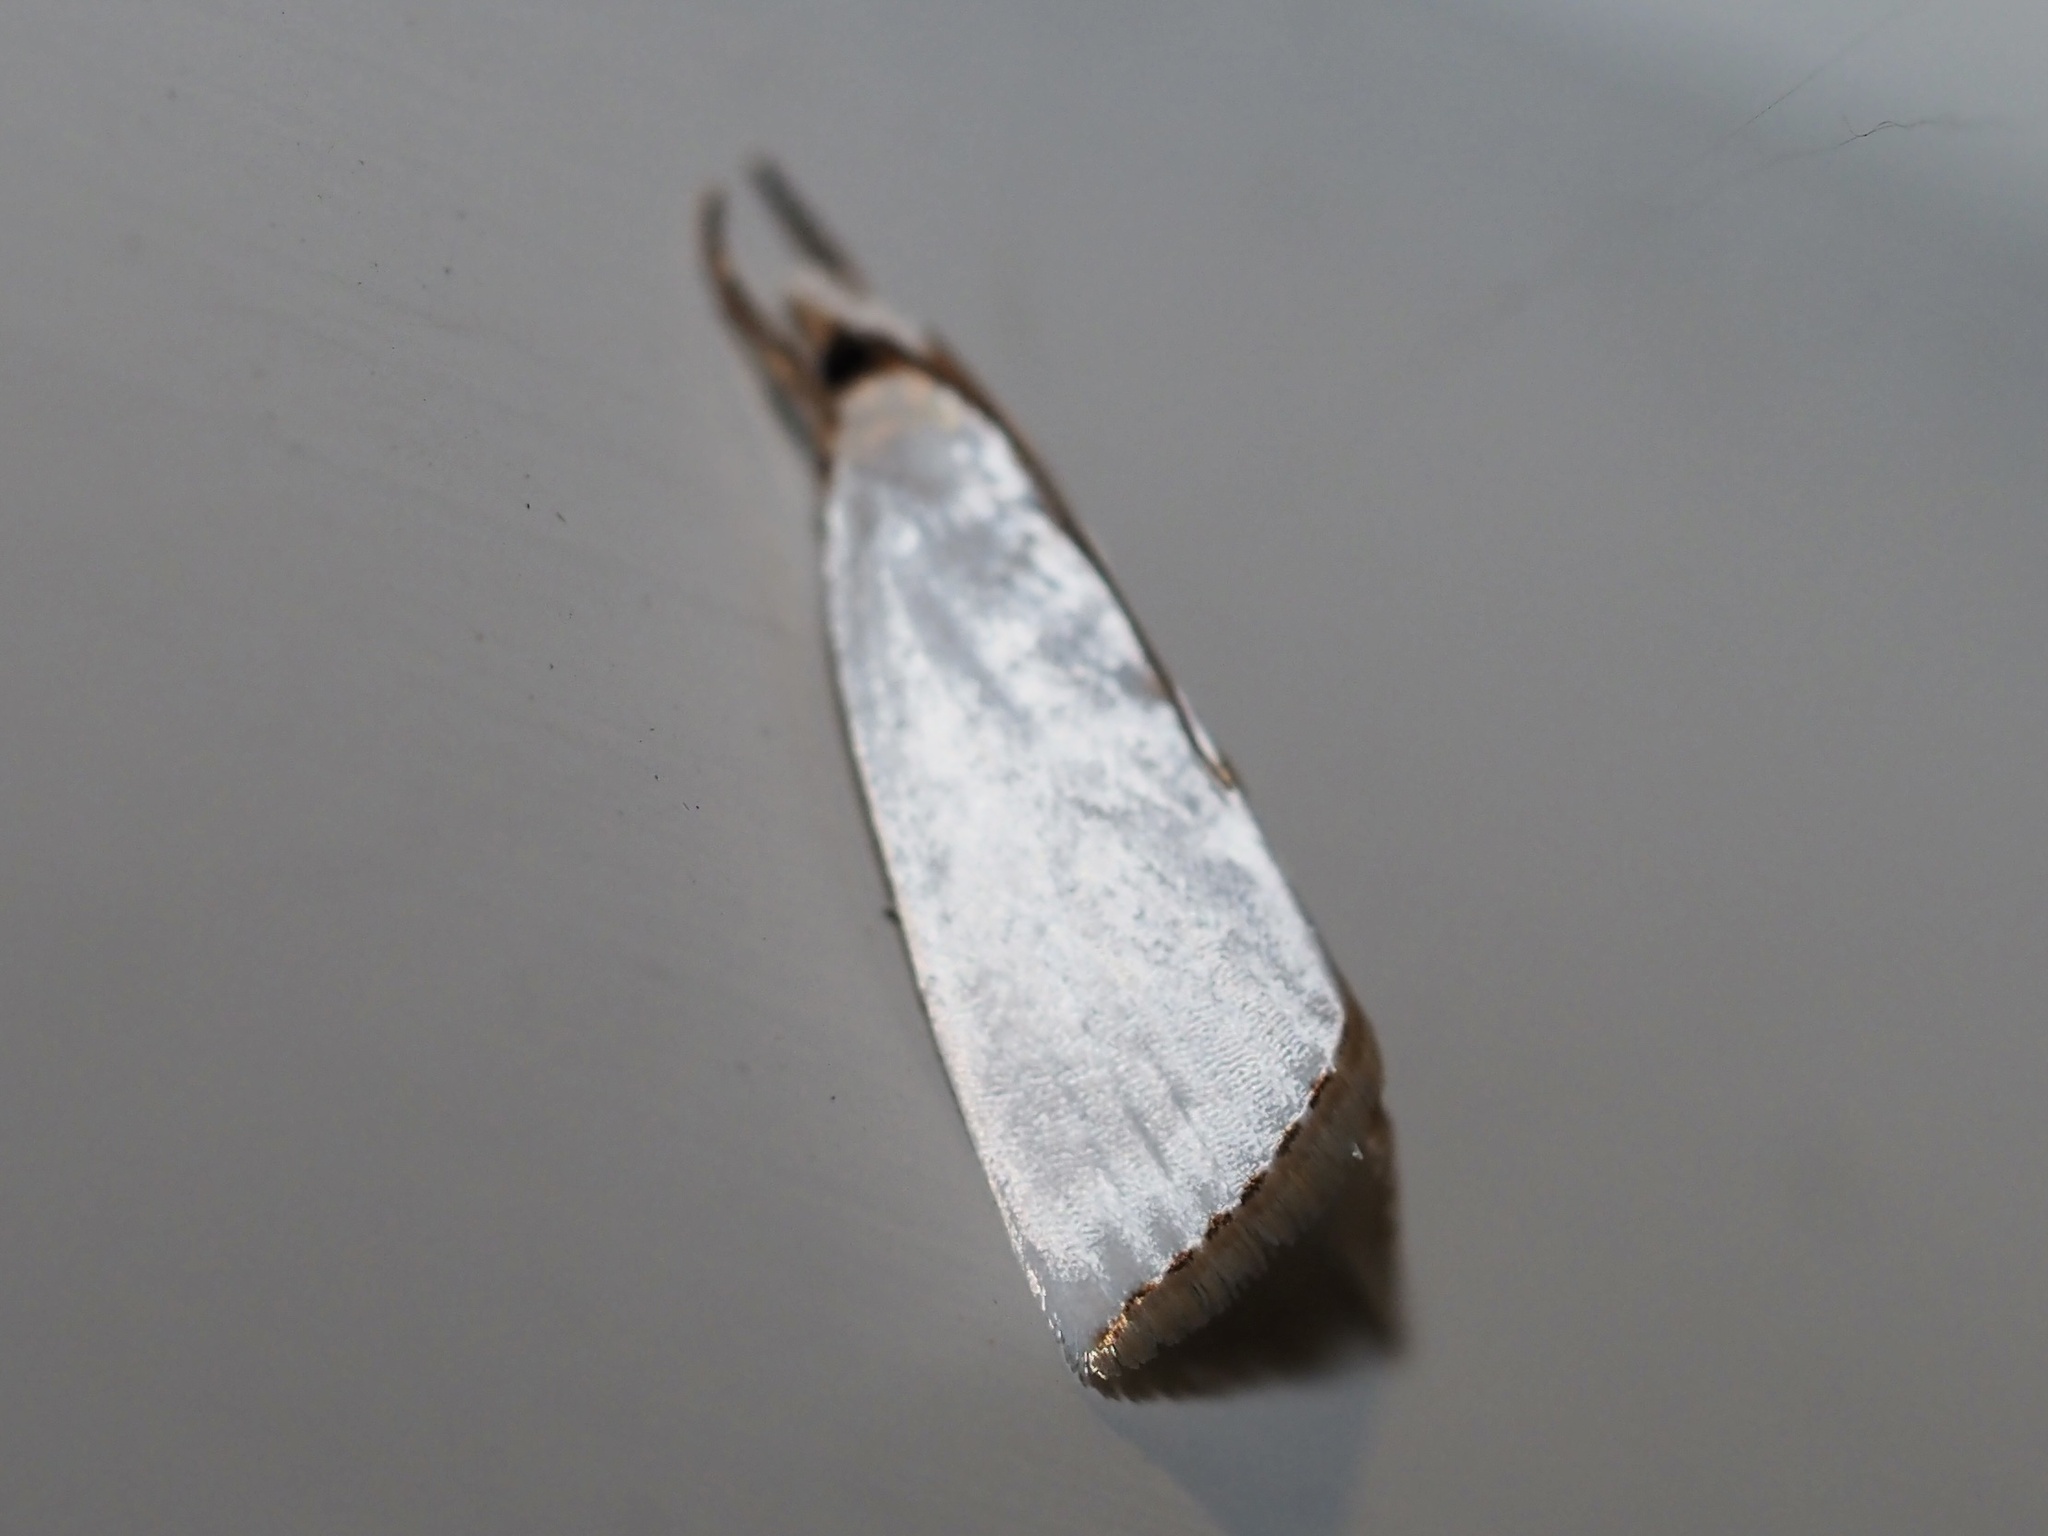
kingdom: Animalia
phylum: Arthropoda
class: Insecta
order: Lepidoptera
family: Crambidae
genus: Argyria
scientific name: Argyria nivalis
